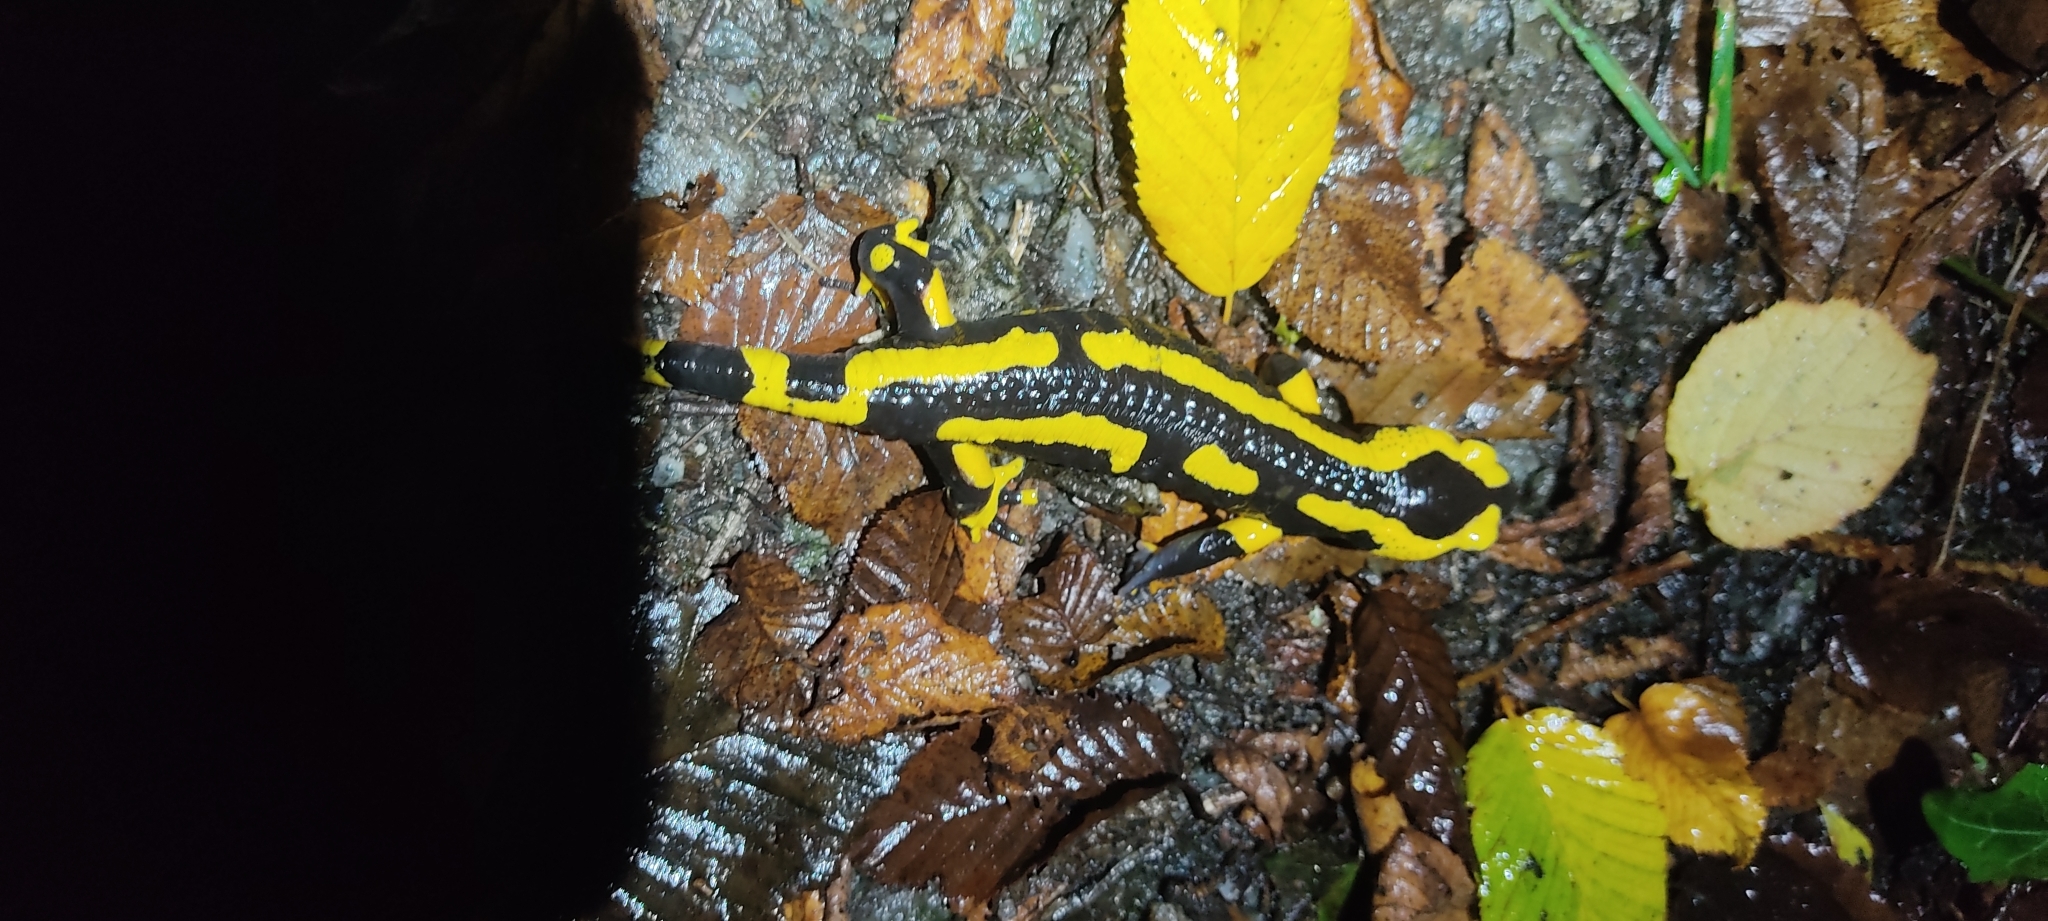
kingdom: Animalia
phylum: Chordata
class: Amphibia
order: Caudata
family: Salamandridae
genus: Salamandra
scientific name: Salamandra salamandra
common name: Fire salamander
